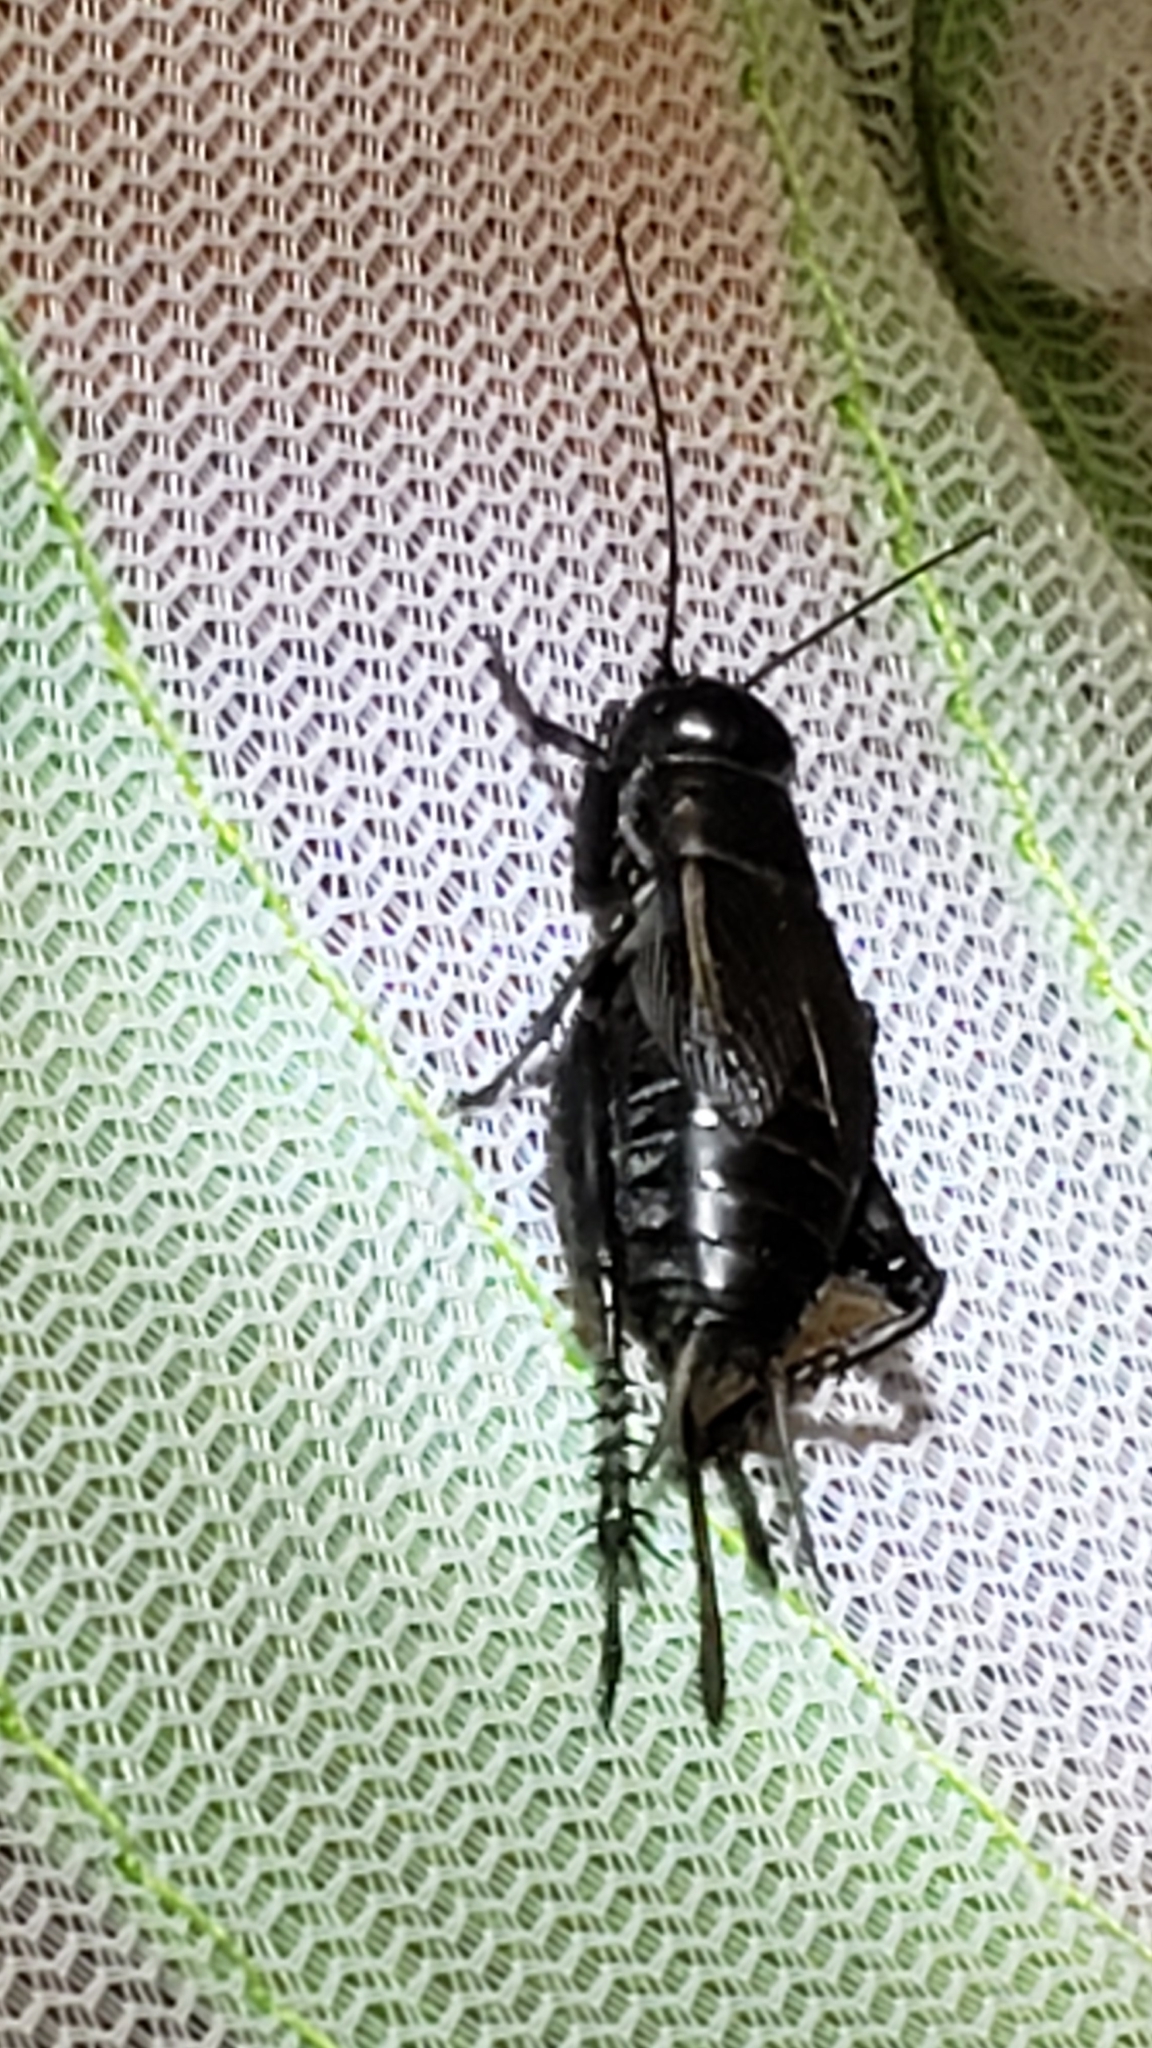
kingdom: Animalia
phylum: Arthropoda
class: Insecta
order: Orthoptera
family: Gryllidae
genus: Gryllus
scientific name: Gryllus veletis
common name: Spring field cricket
